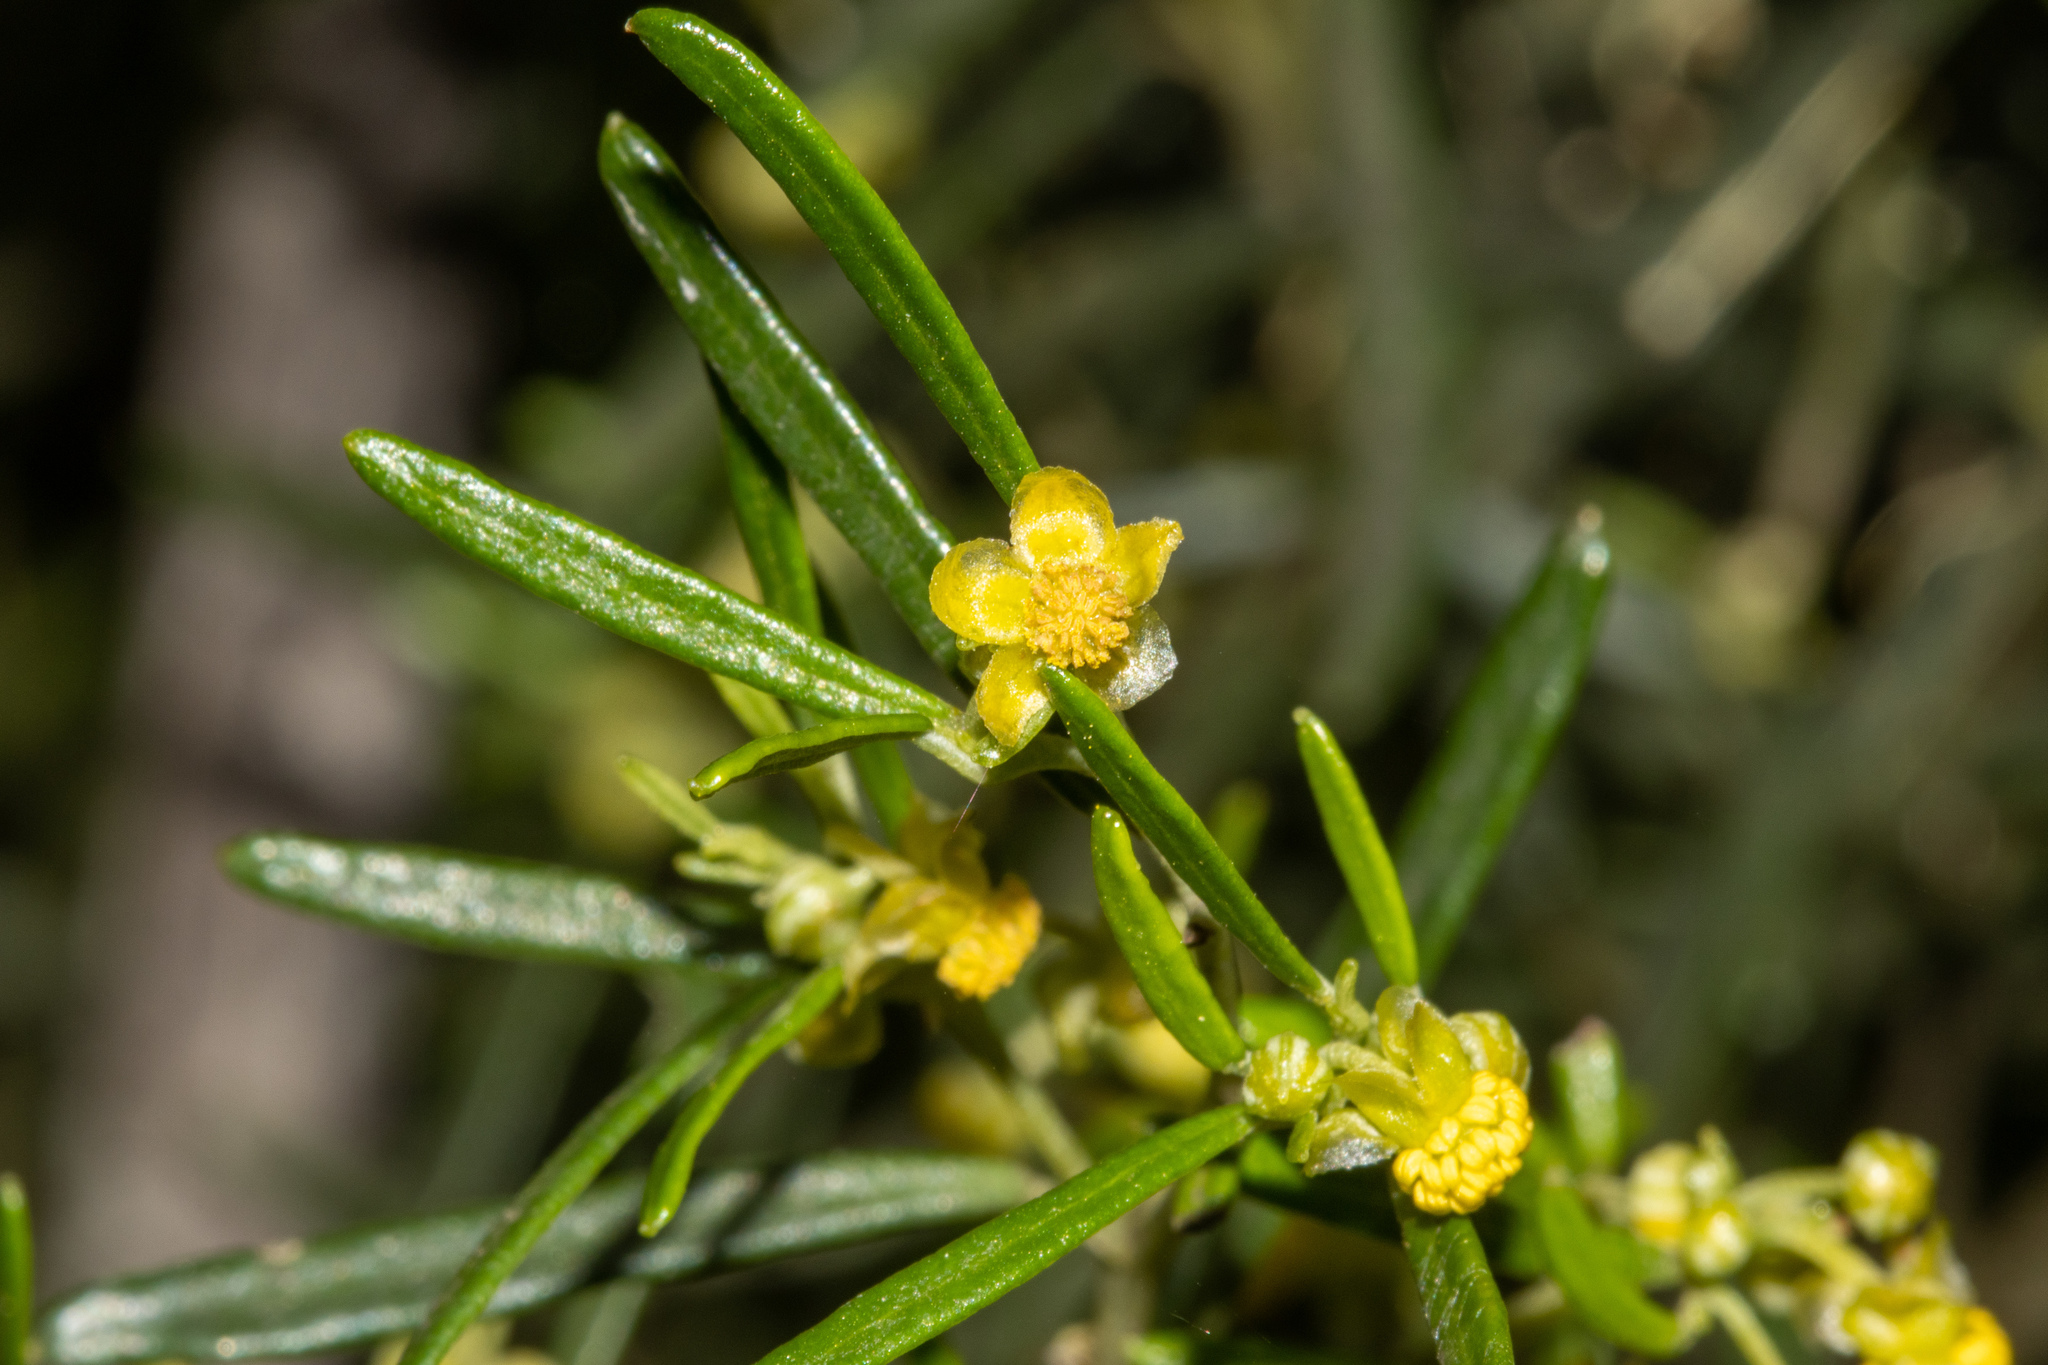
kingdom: Plantae
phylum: Tracheophyta
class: Magnoliopsida
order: Malpighiales
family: Euphorbiaceae
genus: Beyeria
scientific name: Beyeria lechenaultii
